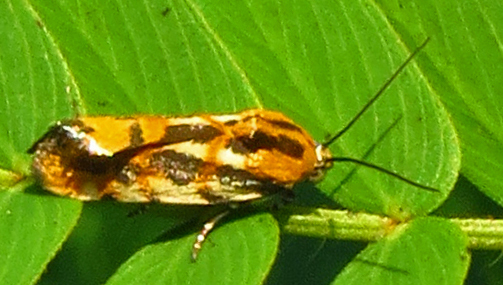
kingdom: Animalia
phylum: Arthropoda
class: Insecta
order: Lepidoptera
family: Noctuidae
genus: Acontia
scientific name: Acontia leo
